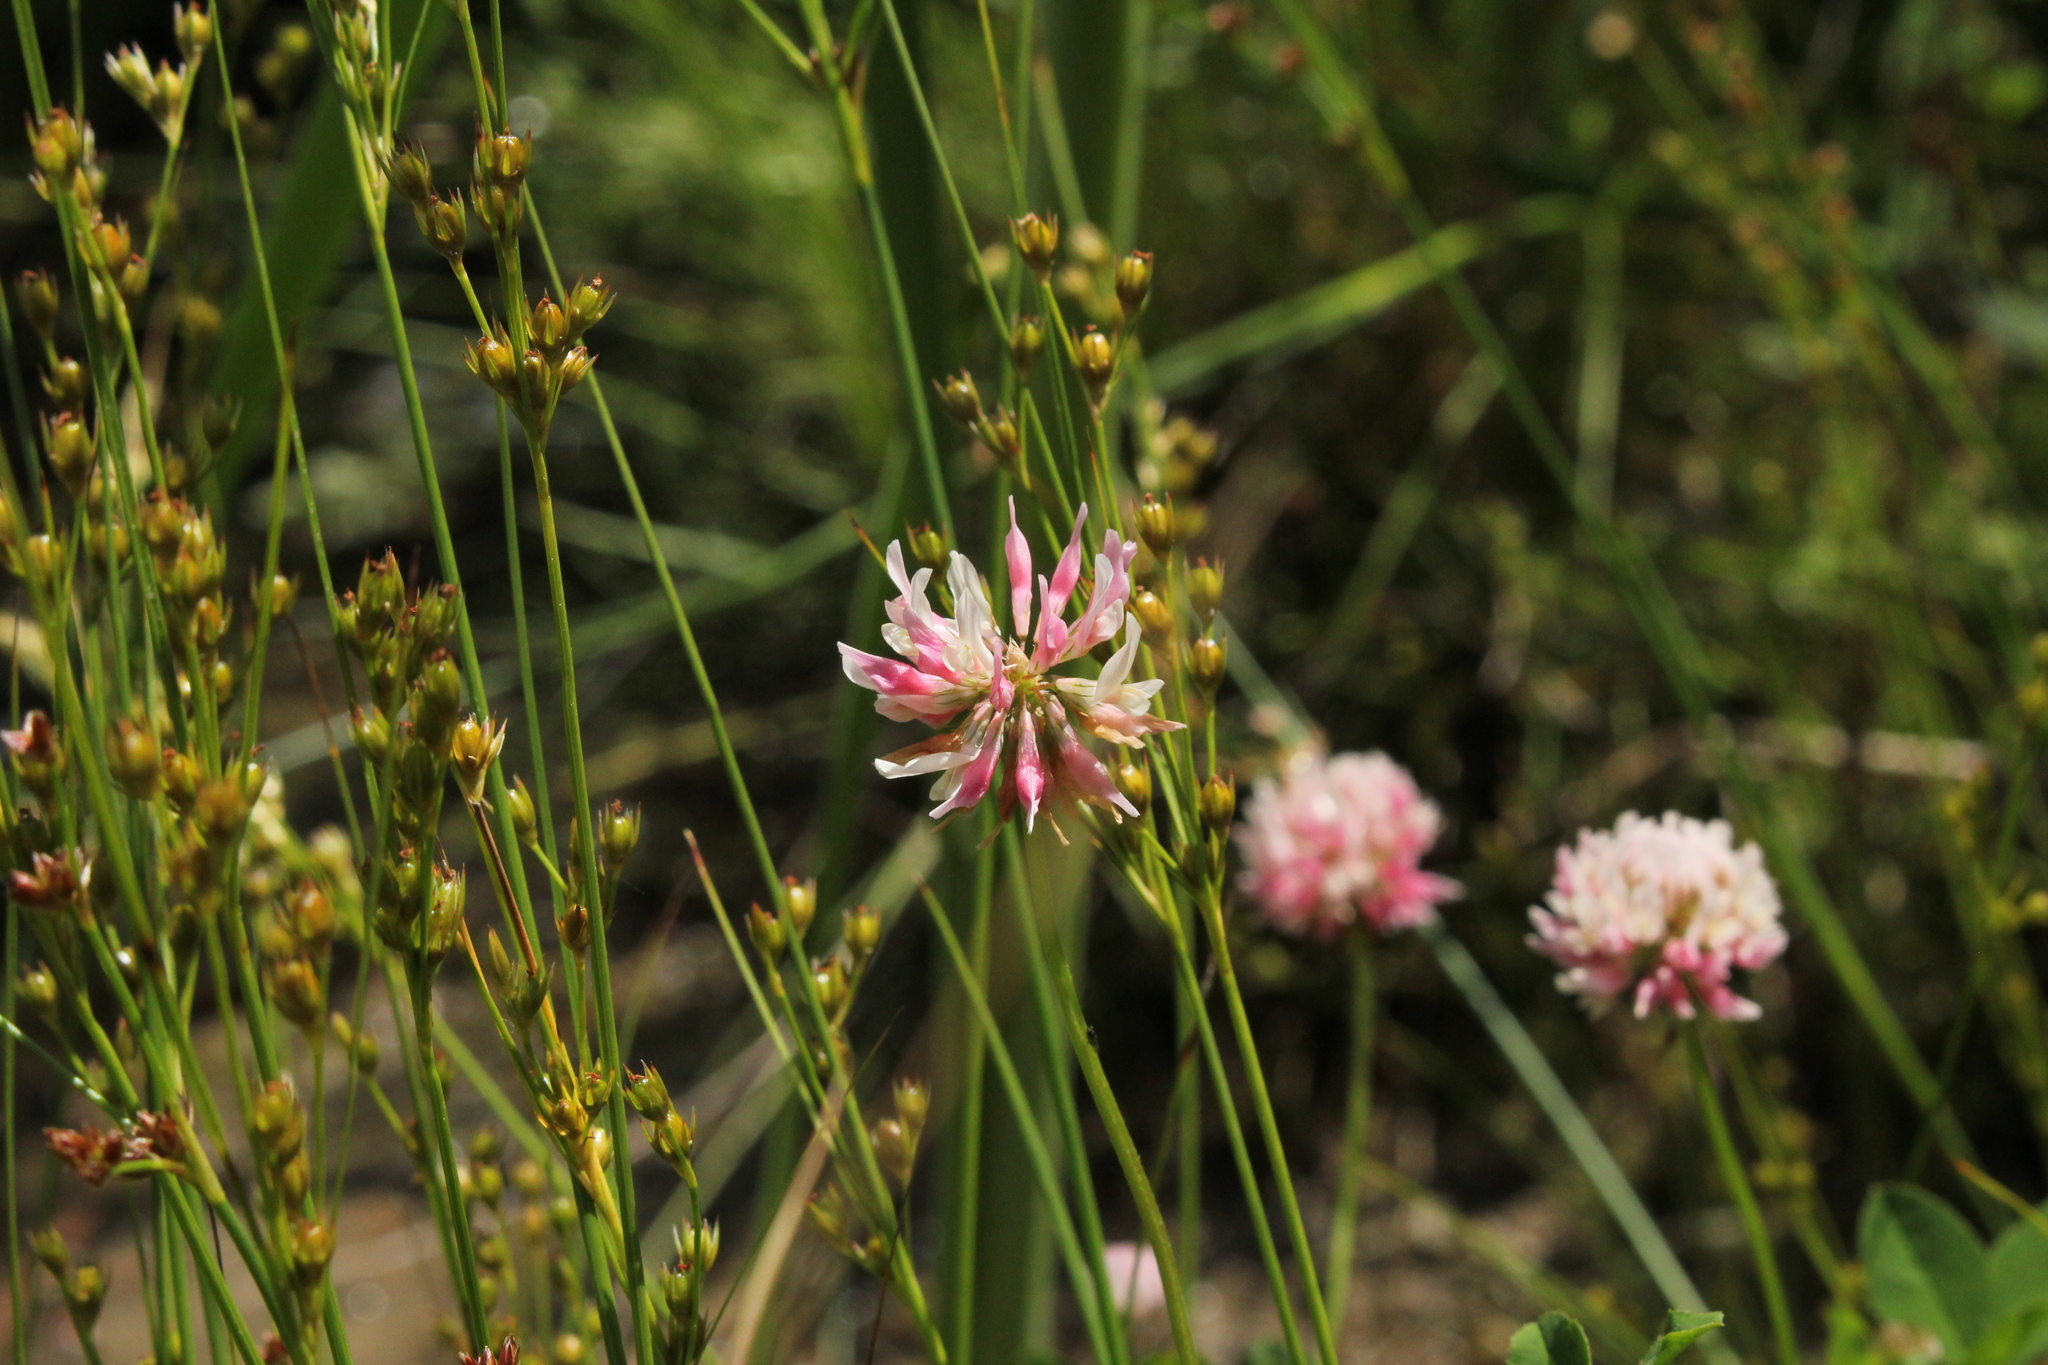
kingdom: Plantae
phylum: Tracheophyta
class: Magnoliopsida
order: Fabales
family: Fabaceae
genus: Trifolium
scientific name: Trifolium hybridum
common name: Alsike clover
